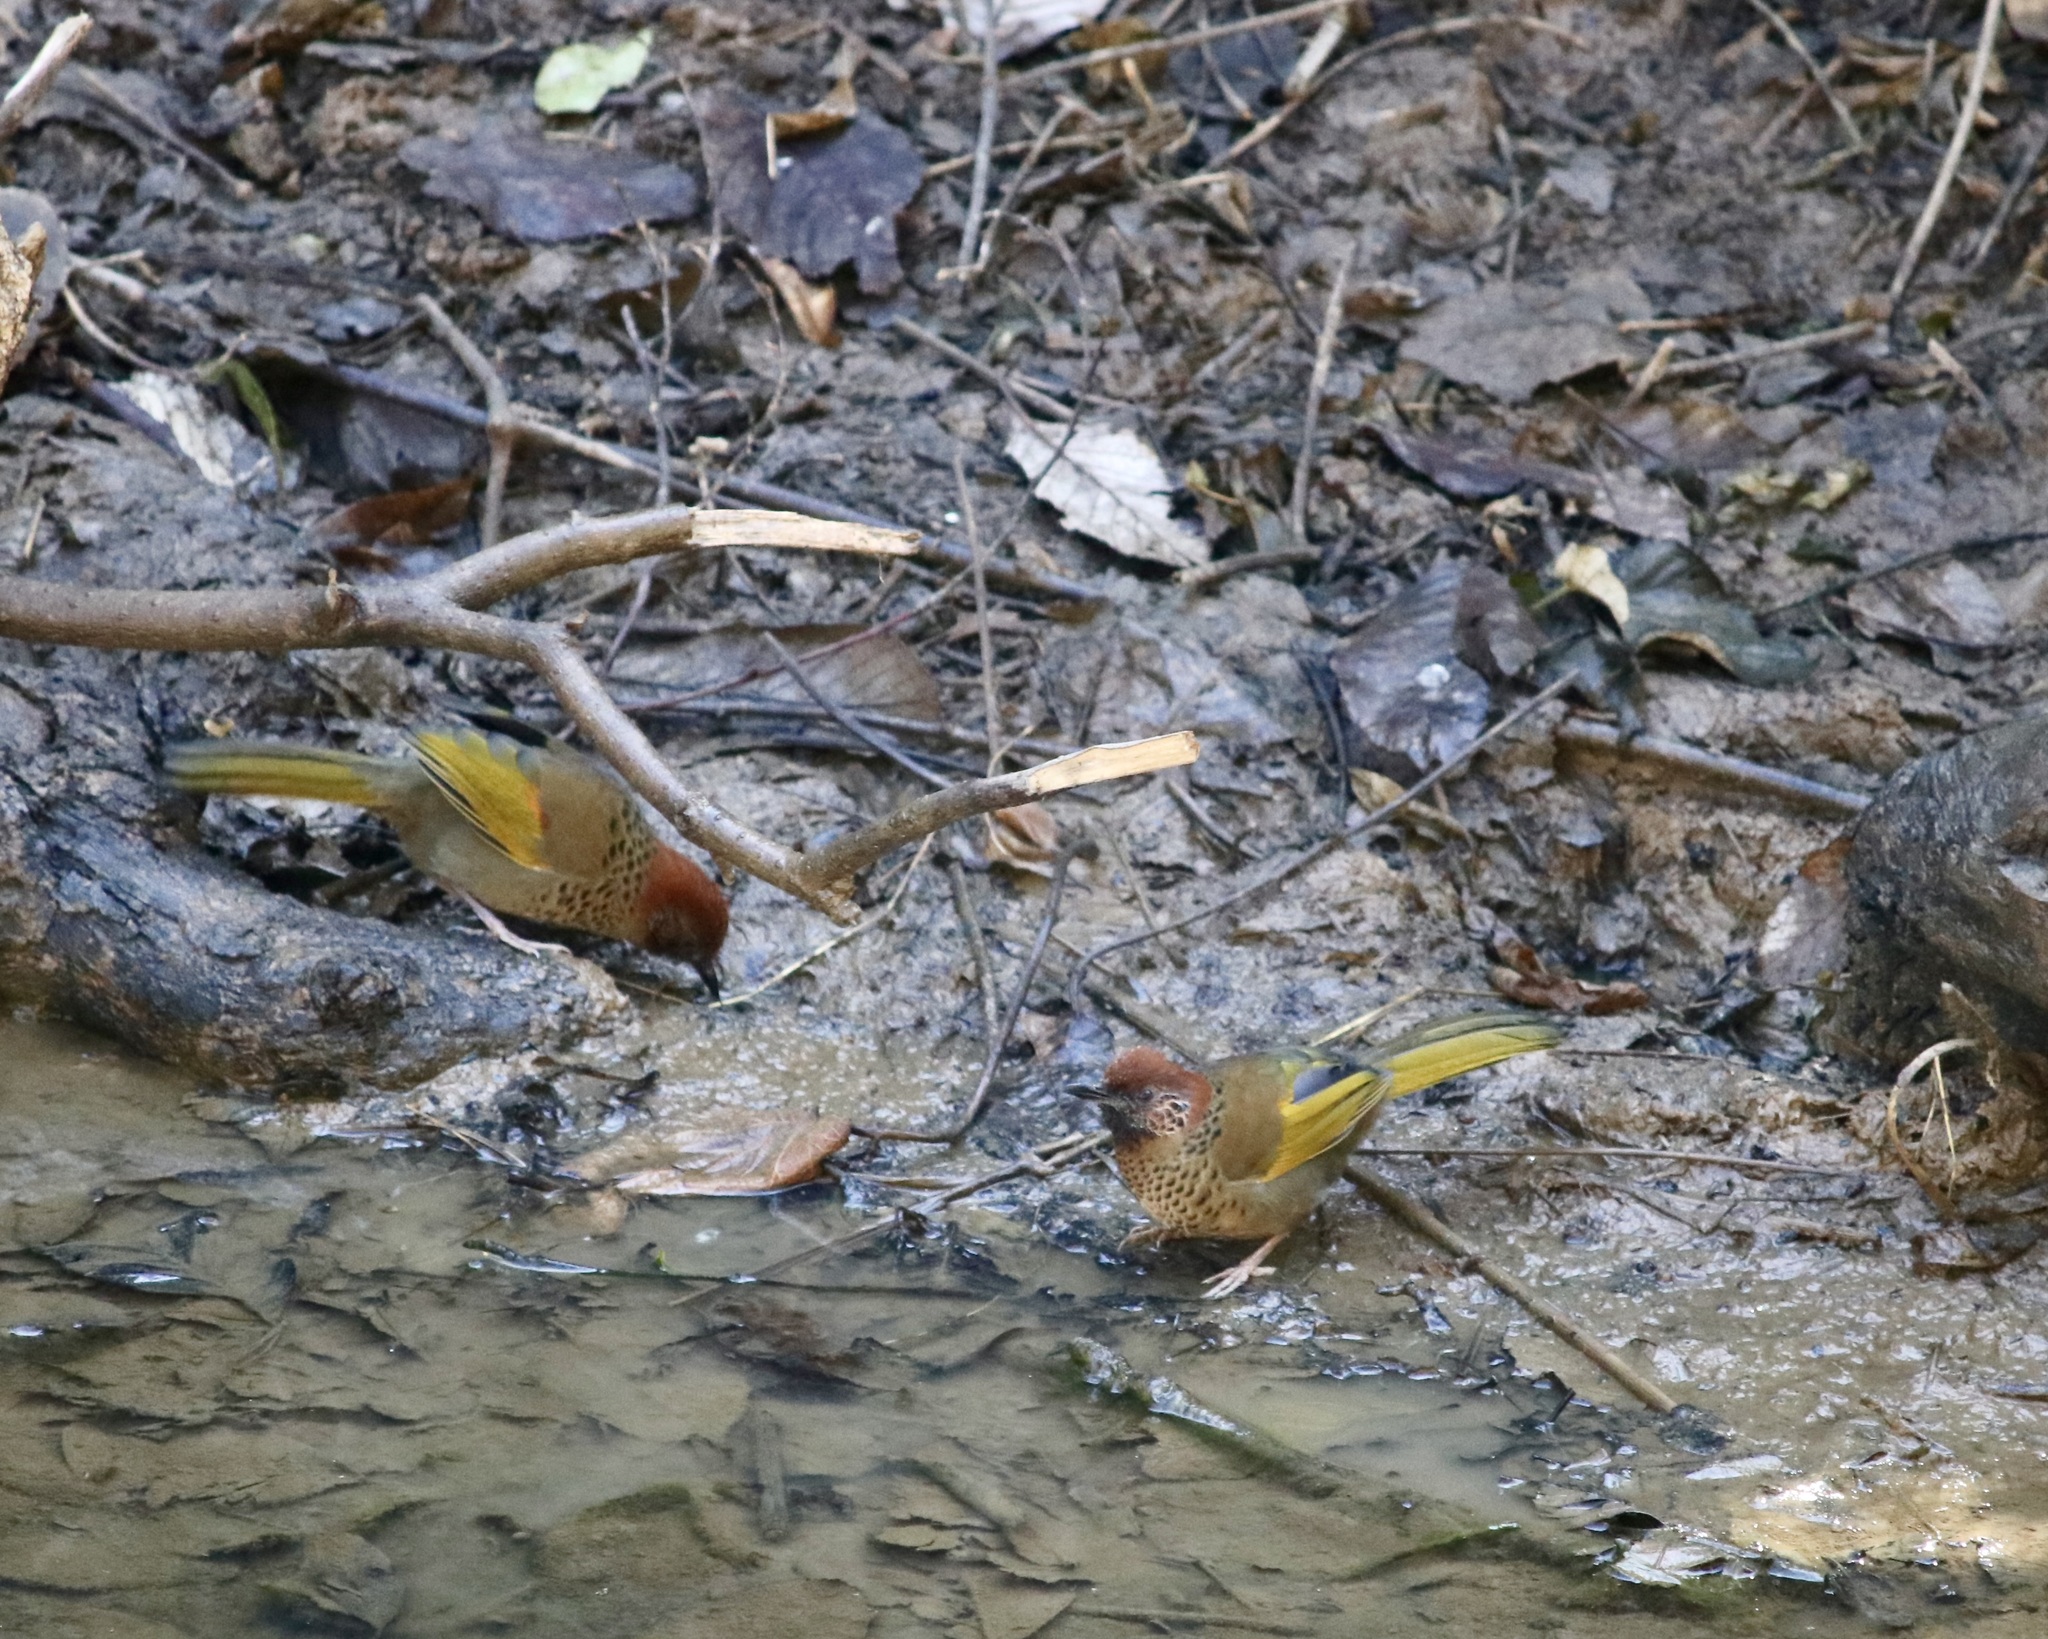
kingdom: Animalia
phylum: Chordata
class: Aves
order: Passeriformes
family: Leiothrichidae
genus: Trochalopteron
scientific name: Trochalopteron erythrocephalum
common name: Chestnut-crowned laughingthrush
